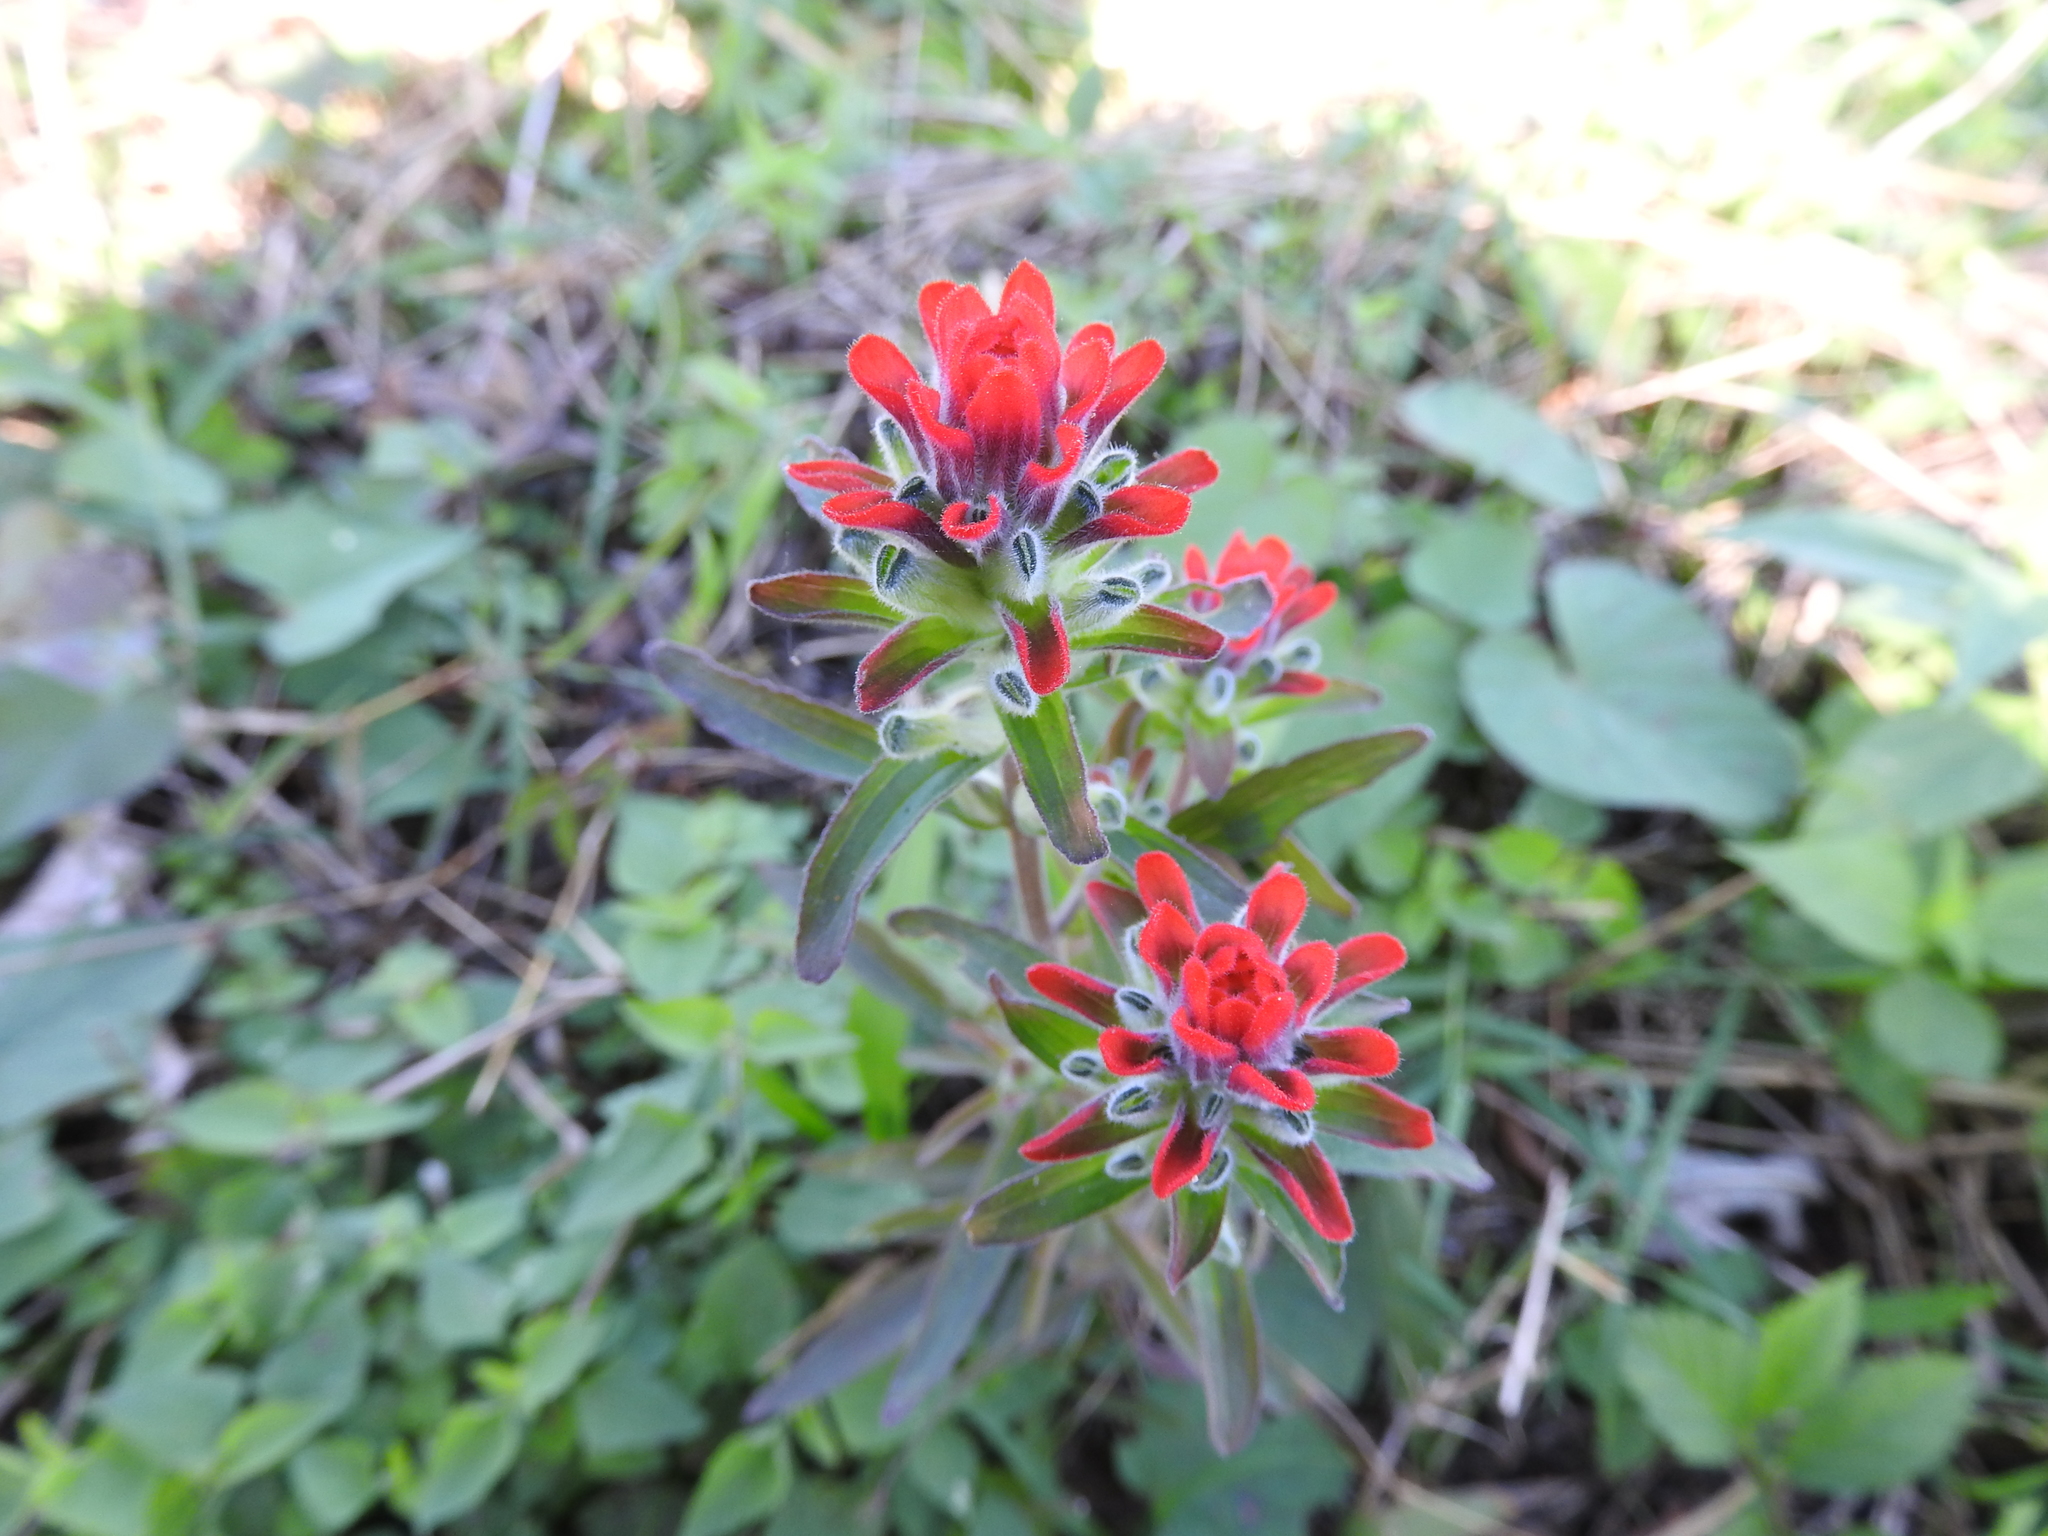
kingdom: Plantae
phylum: Tracheophyta
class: Magnoliopsida
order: Lamiales
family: Orobanchaceae
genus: Castilleja
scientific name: Castilleja arvensis
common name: Indian paintbrush
